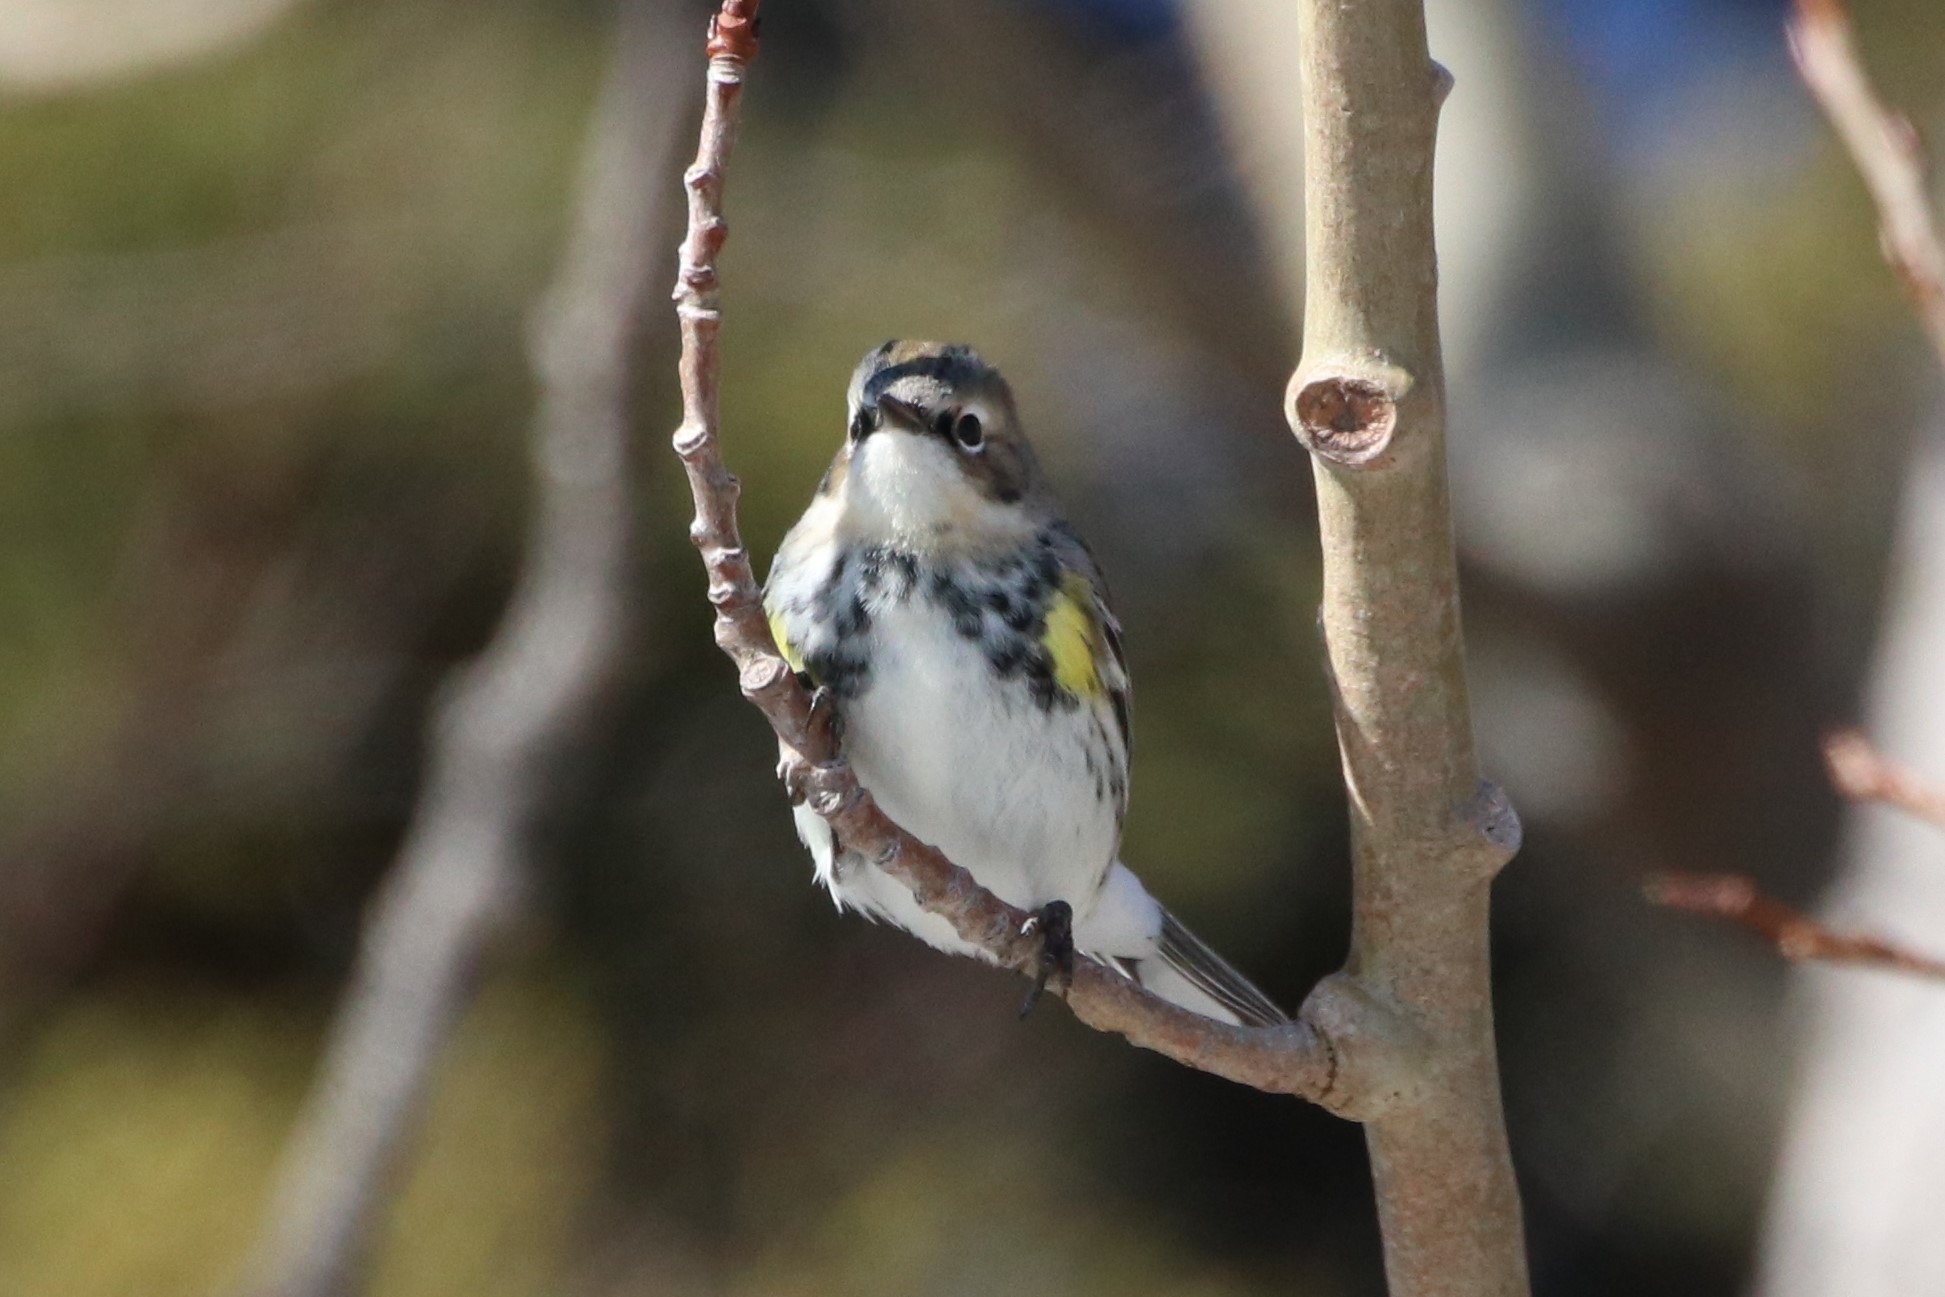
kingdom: Animalia
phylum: Chordata
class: Aves
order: Passeriformes
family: Parulidae
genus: Setophaga
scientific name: Setophaga coronata
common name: Myrtle warbler
